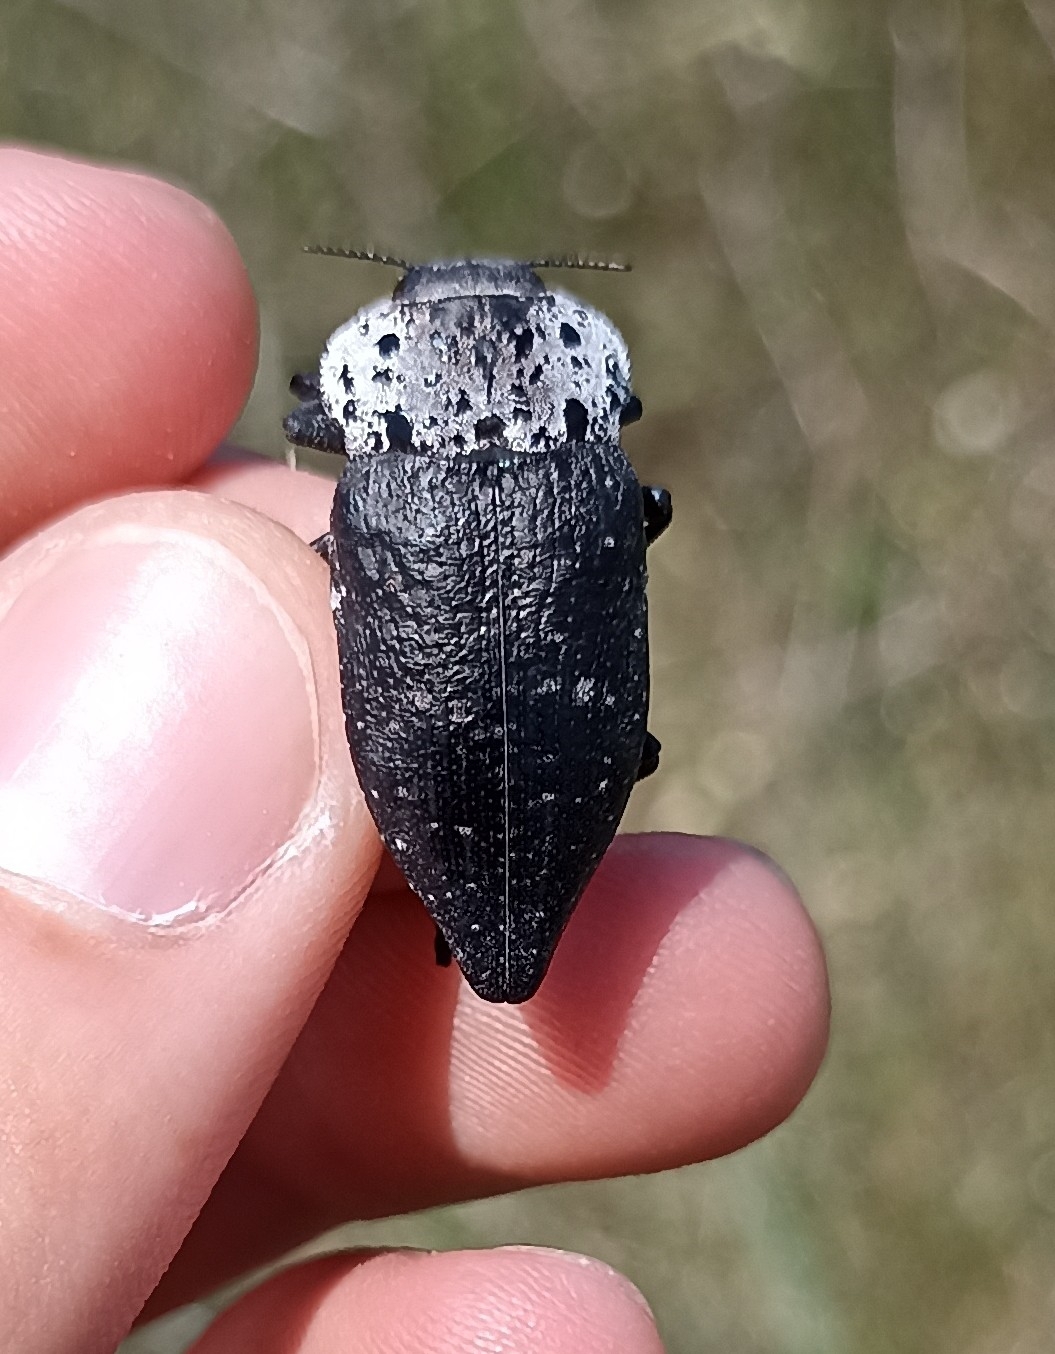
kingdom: Animalia
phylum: Arthropoda
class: Insecta
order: Coleoptera
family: Buprestidae
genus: Capnodis
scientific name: Capnodis tenebrionis
